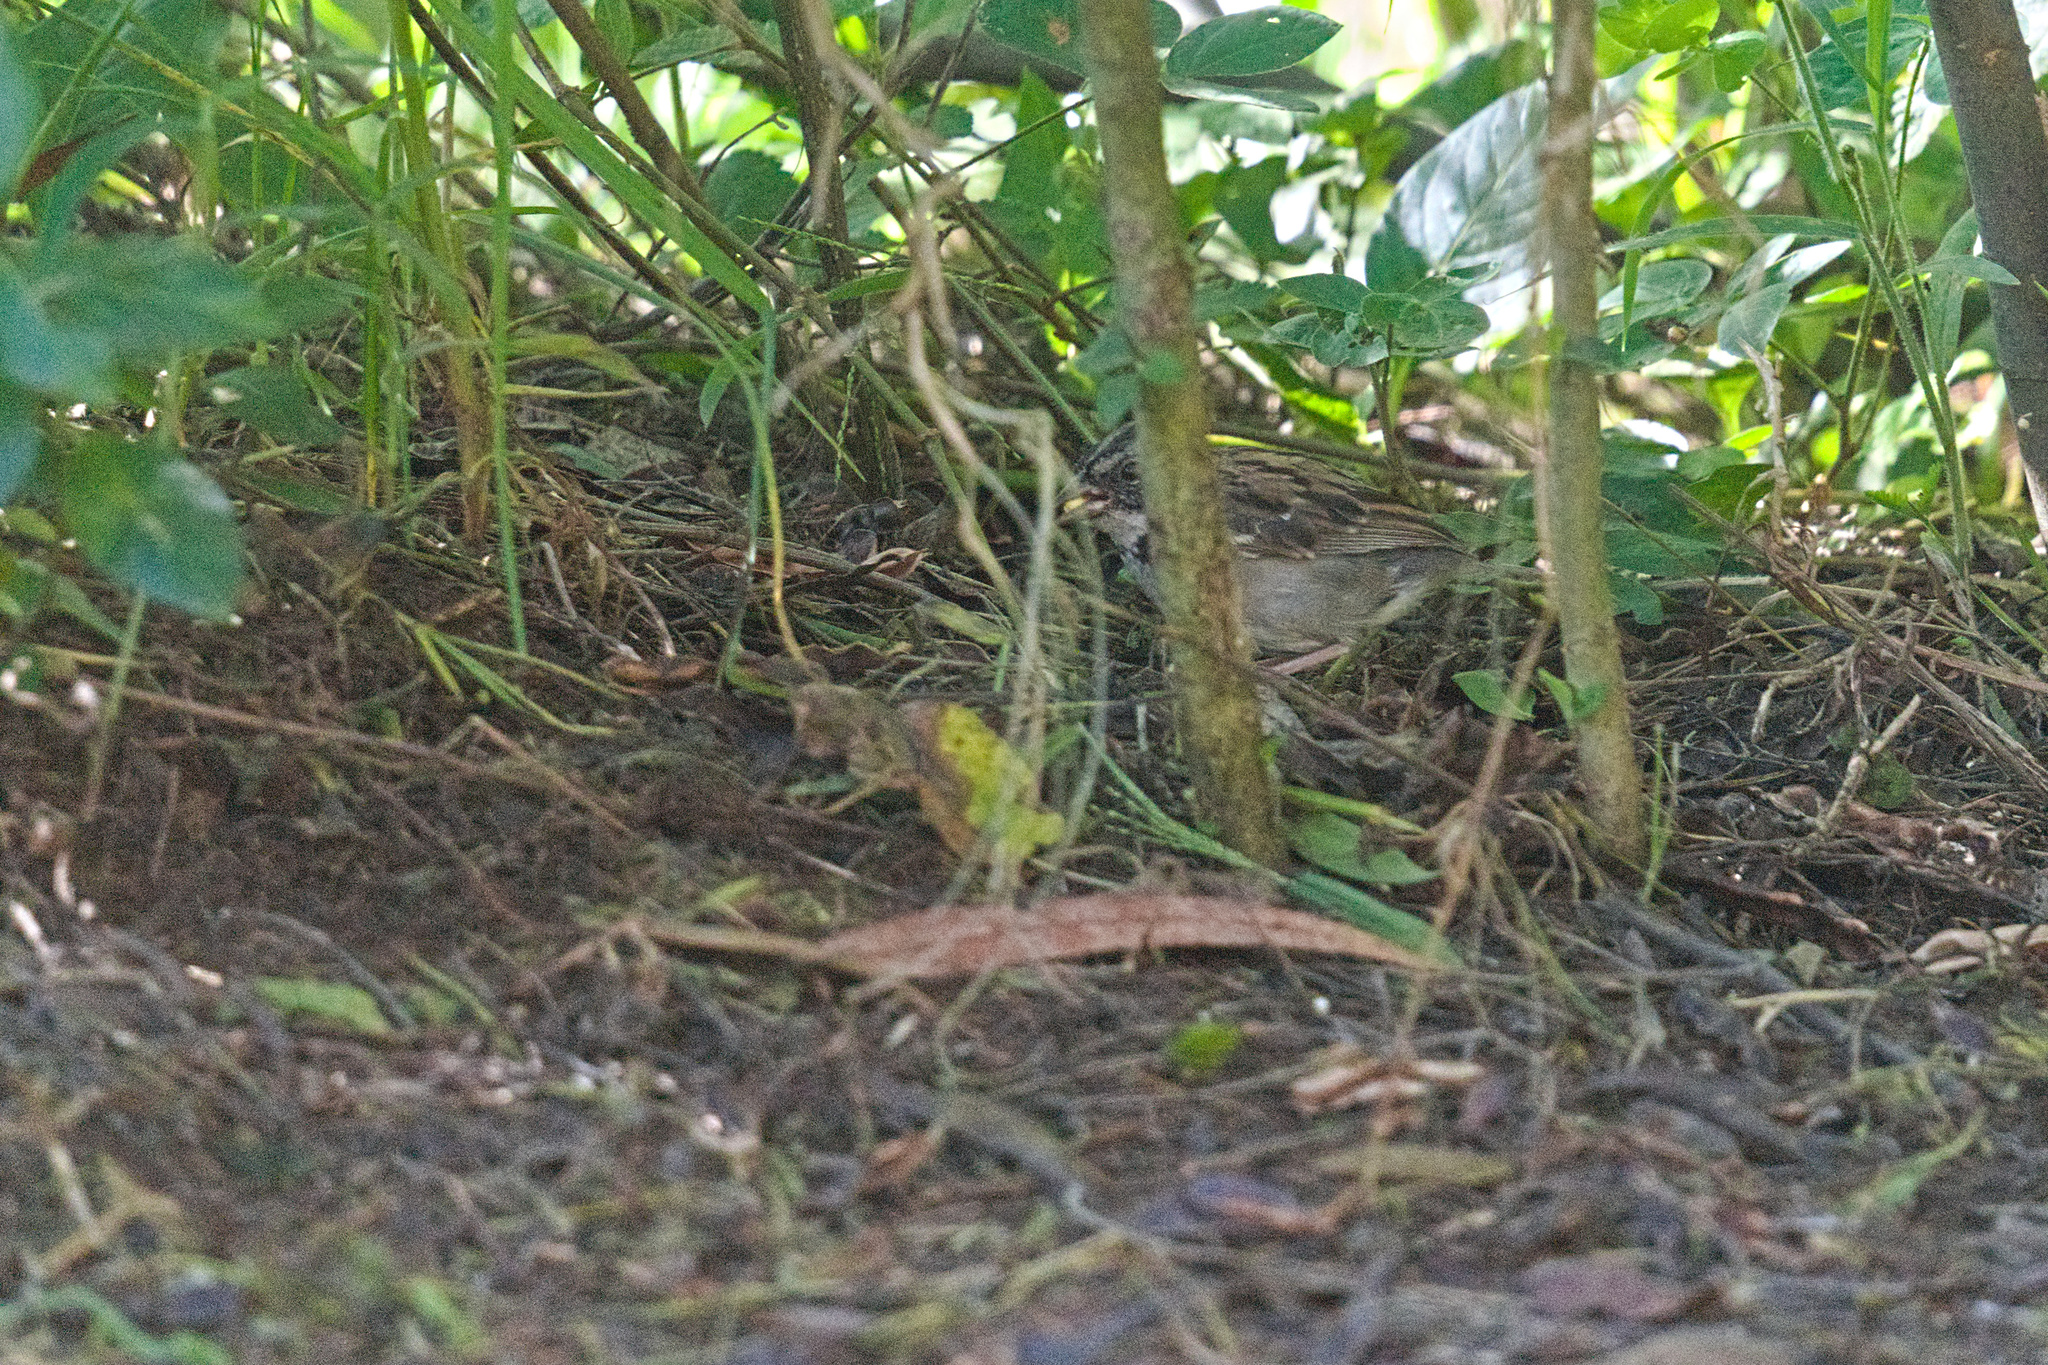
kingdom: Animalia
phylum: Chordata
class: Aves
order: Passeriformes
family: Passerellidae
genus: Zonotrichia
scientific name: Zonotrichia capensis
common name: Rufous-collared sparrow
